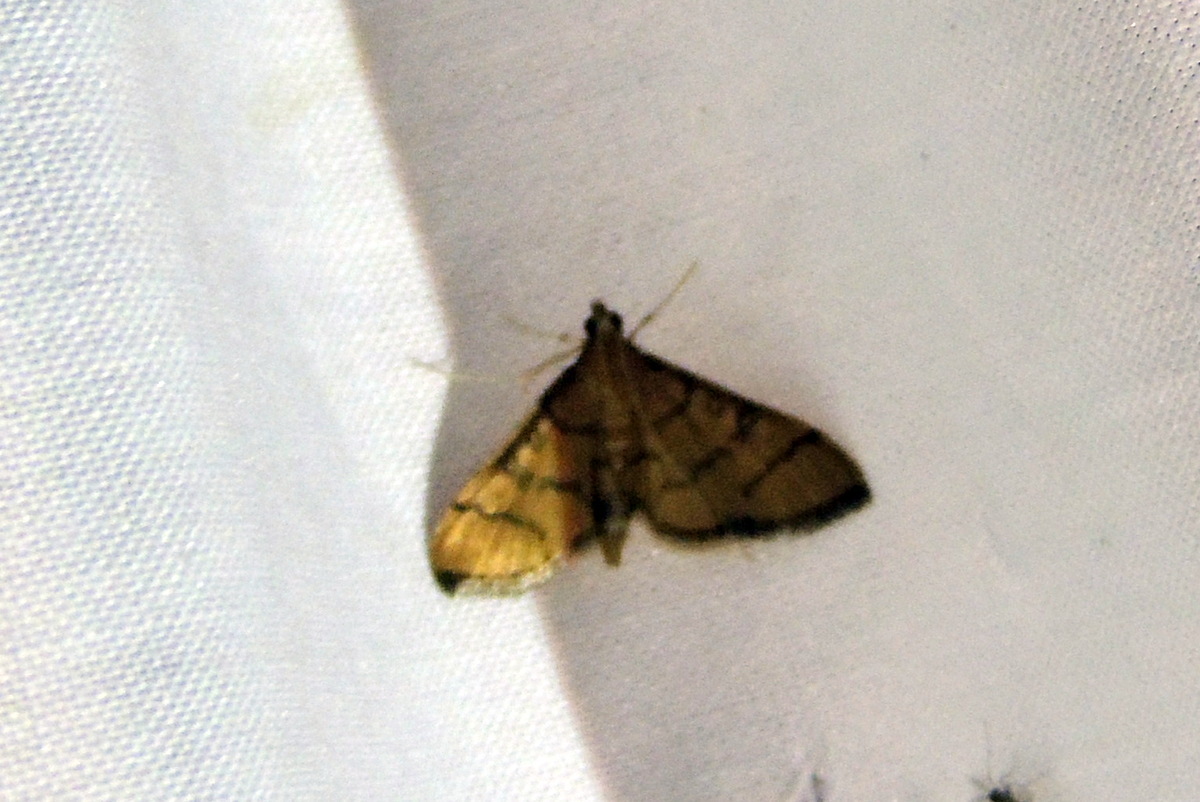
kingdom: Animalia
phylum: Arthropoda
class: Insecta
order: Lepidoptera
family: Crambidae
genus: Lamprosema
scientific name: Lamprosema Blepharomastix ranalis
